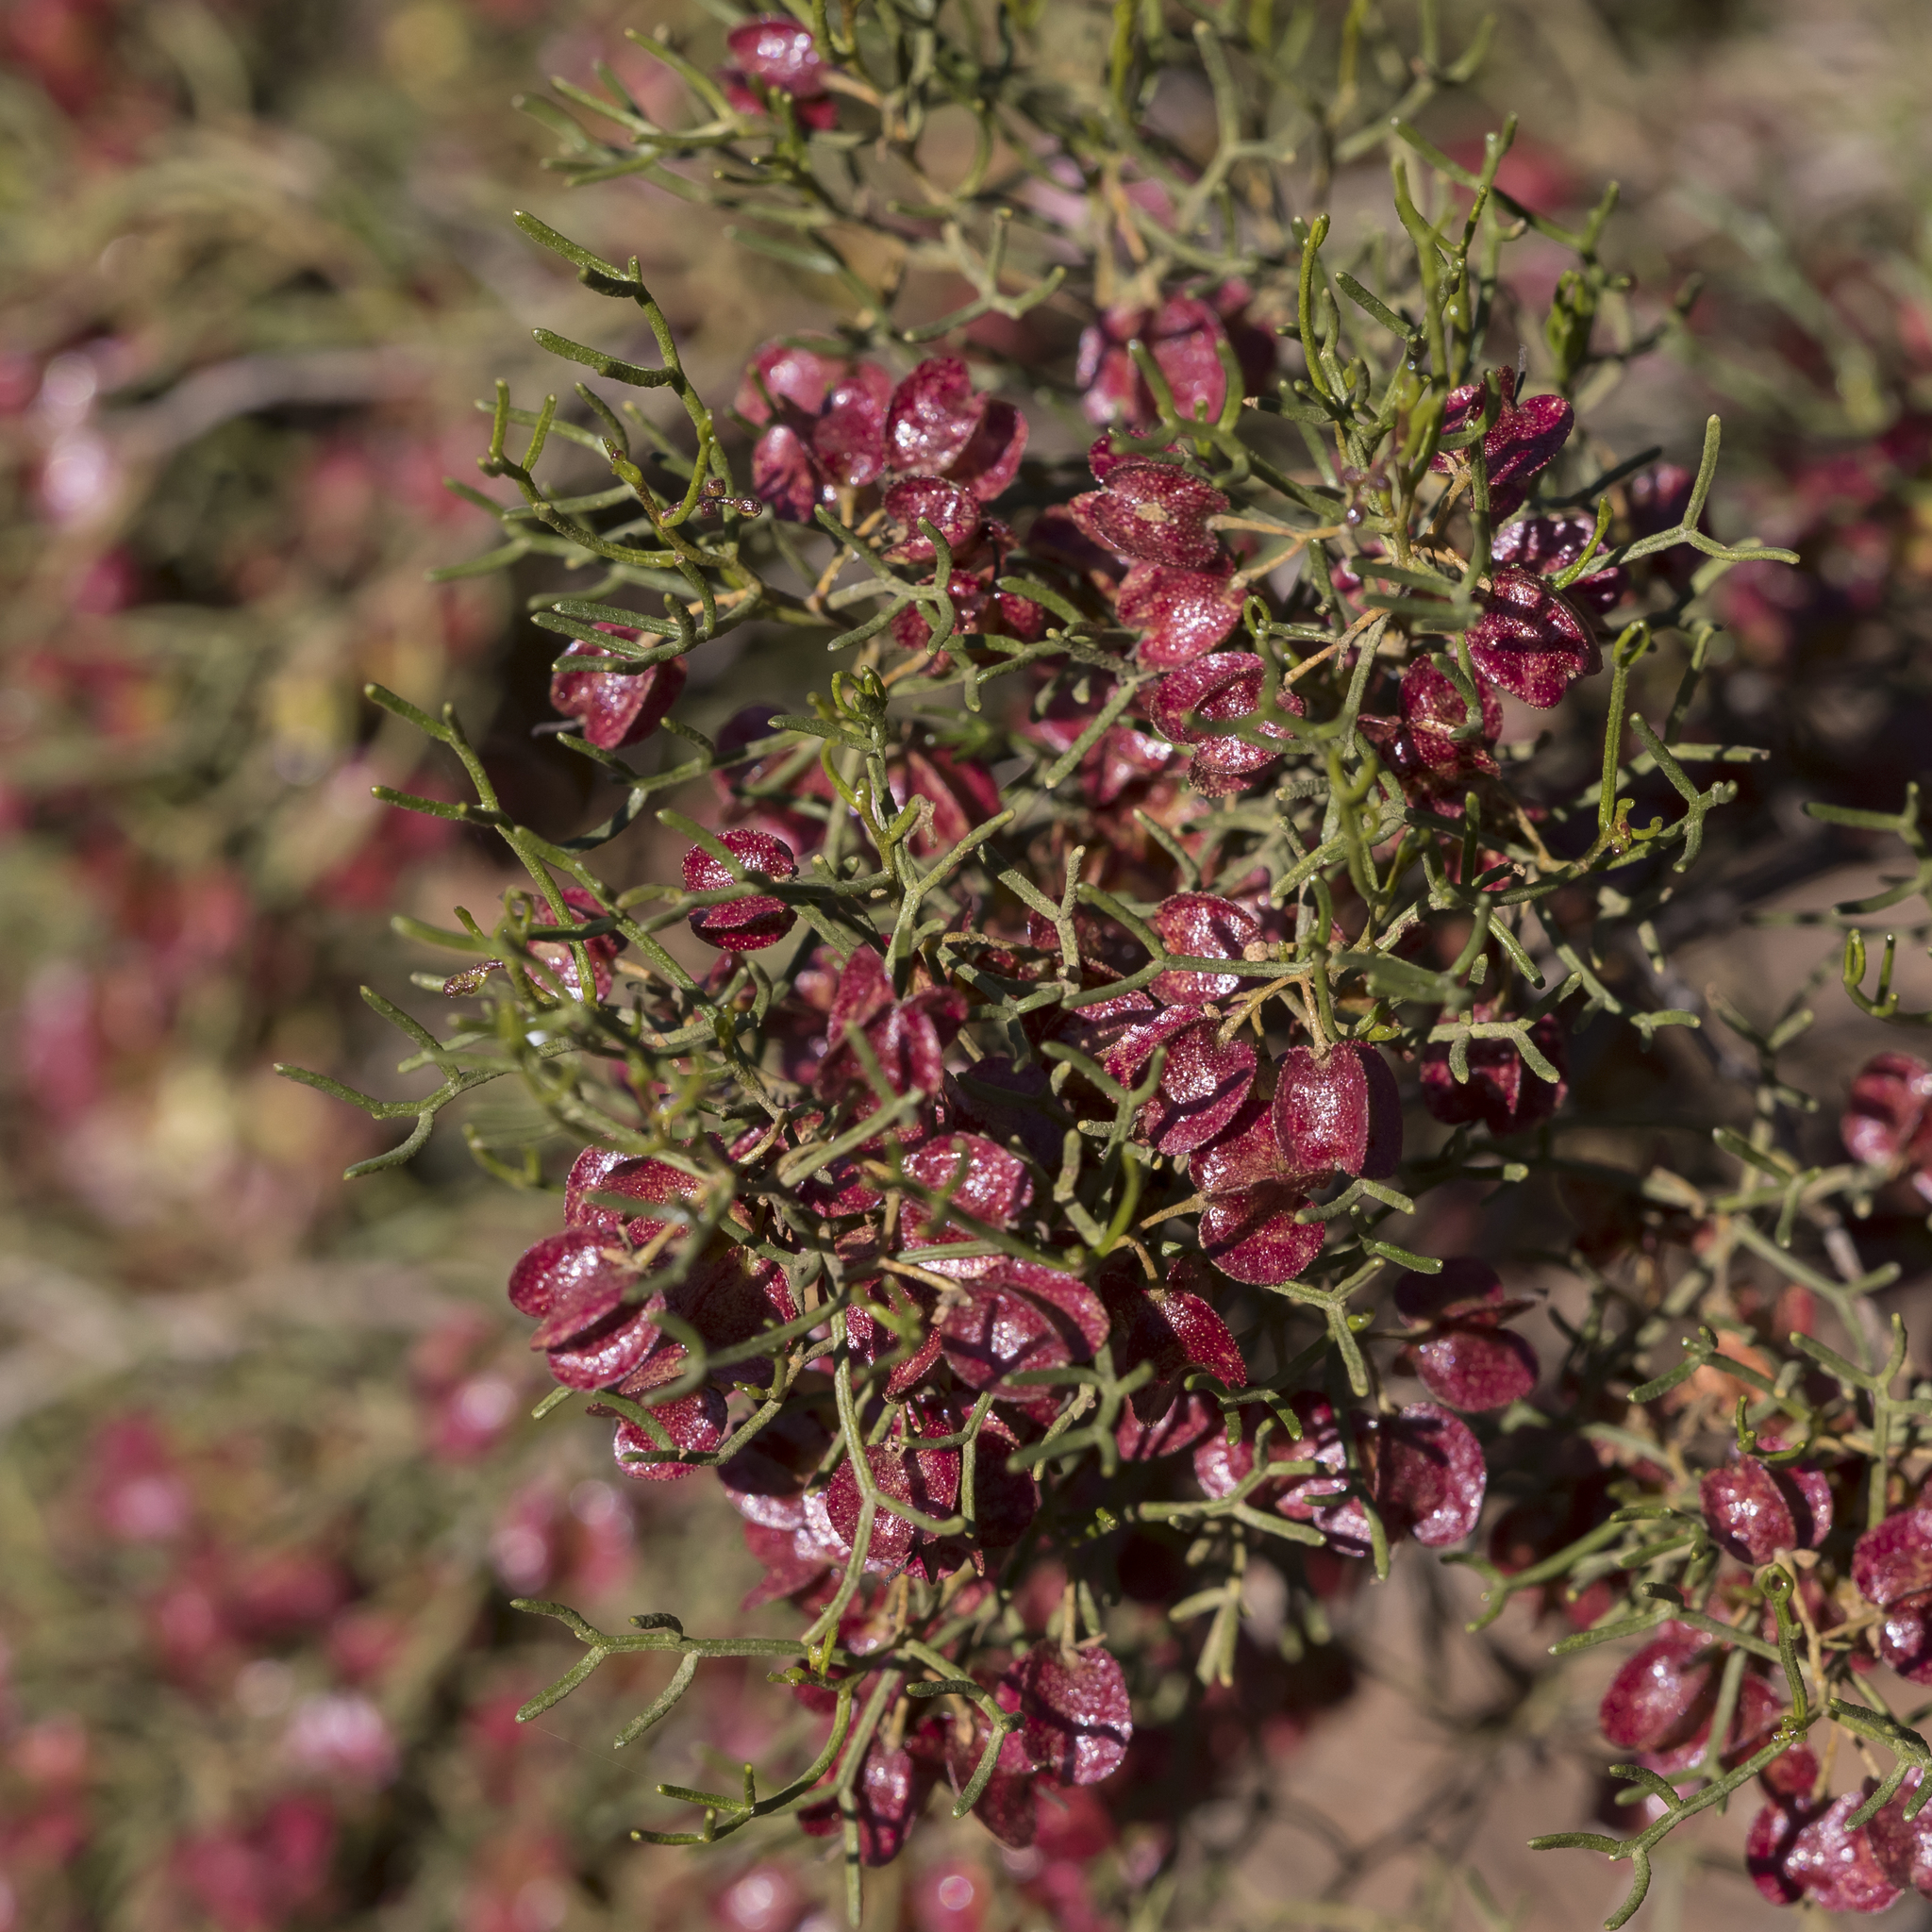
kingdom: Plantae
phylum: Tracheophyta
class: Magnoliopsida
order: Sapindales
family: Sapindaceae
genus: Dodonaea
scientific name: Dodonaea stenozyga
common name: Desert hopbush
